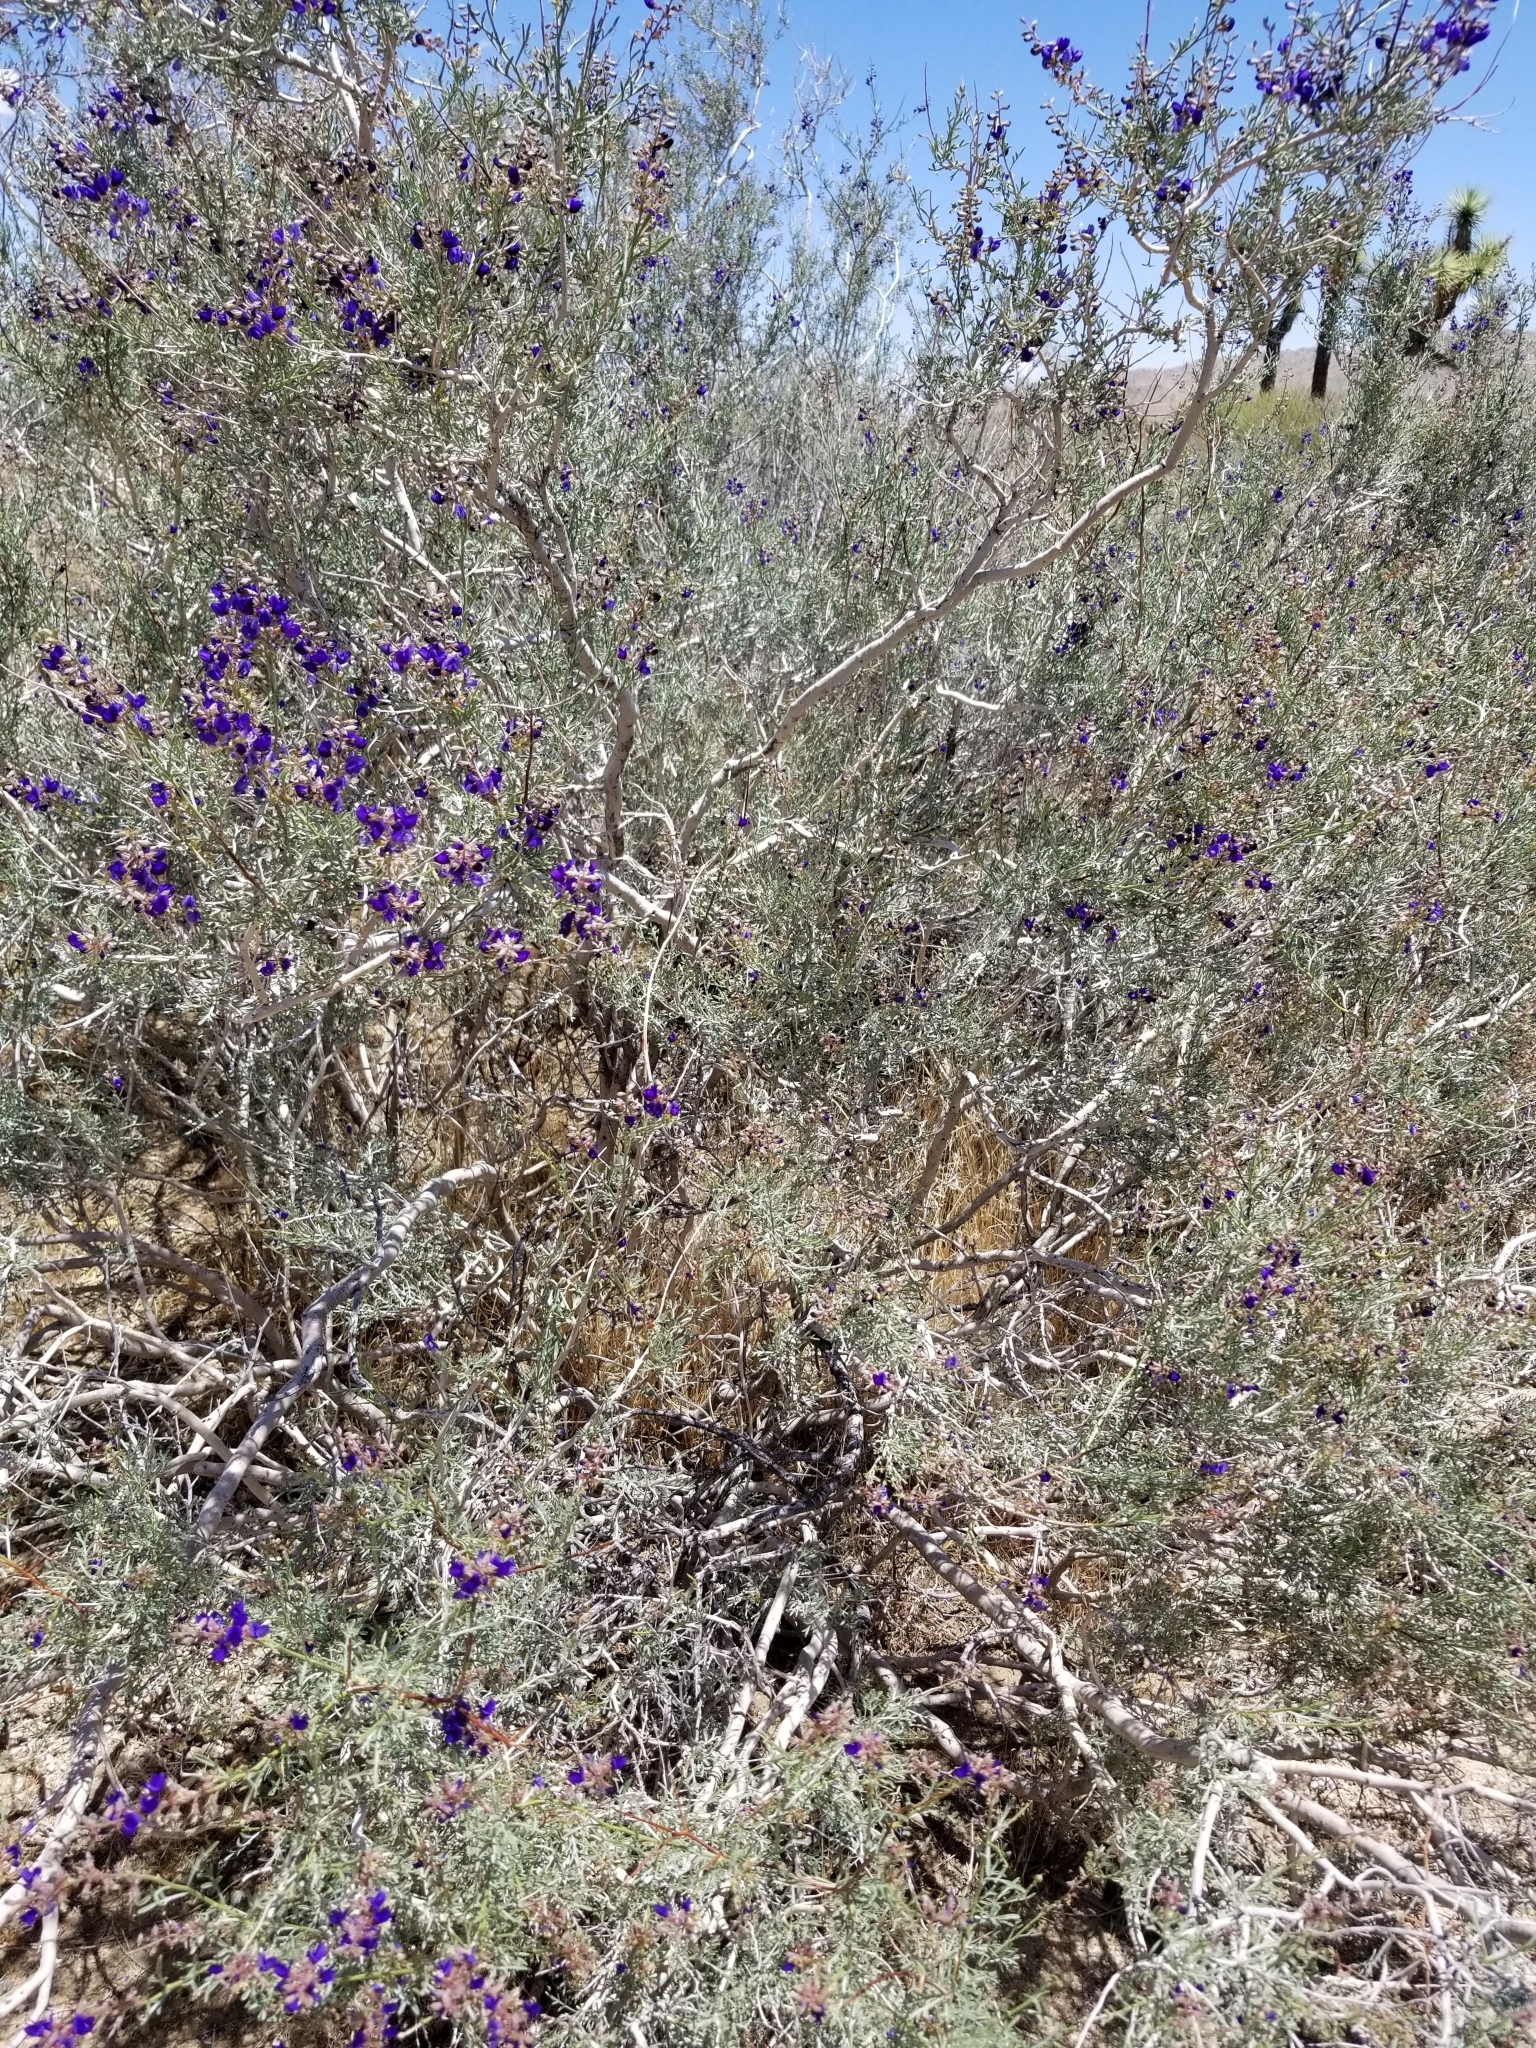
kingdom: Plantae
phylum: Tracheophyta
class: Magnoliopsida
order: Fabales
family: Fabaceae
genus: Psorothamnus
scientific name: Psorothamnus arborescens
